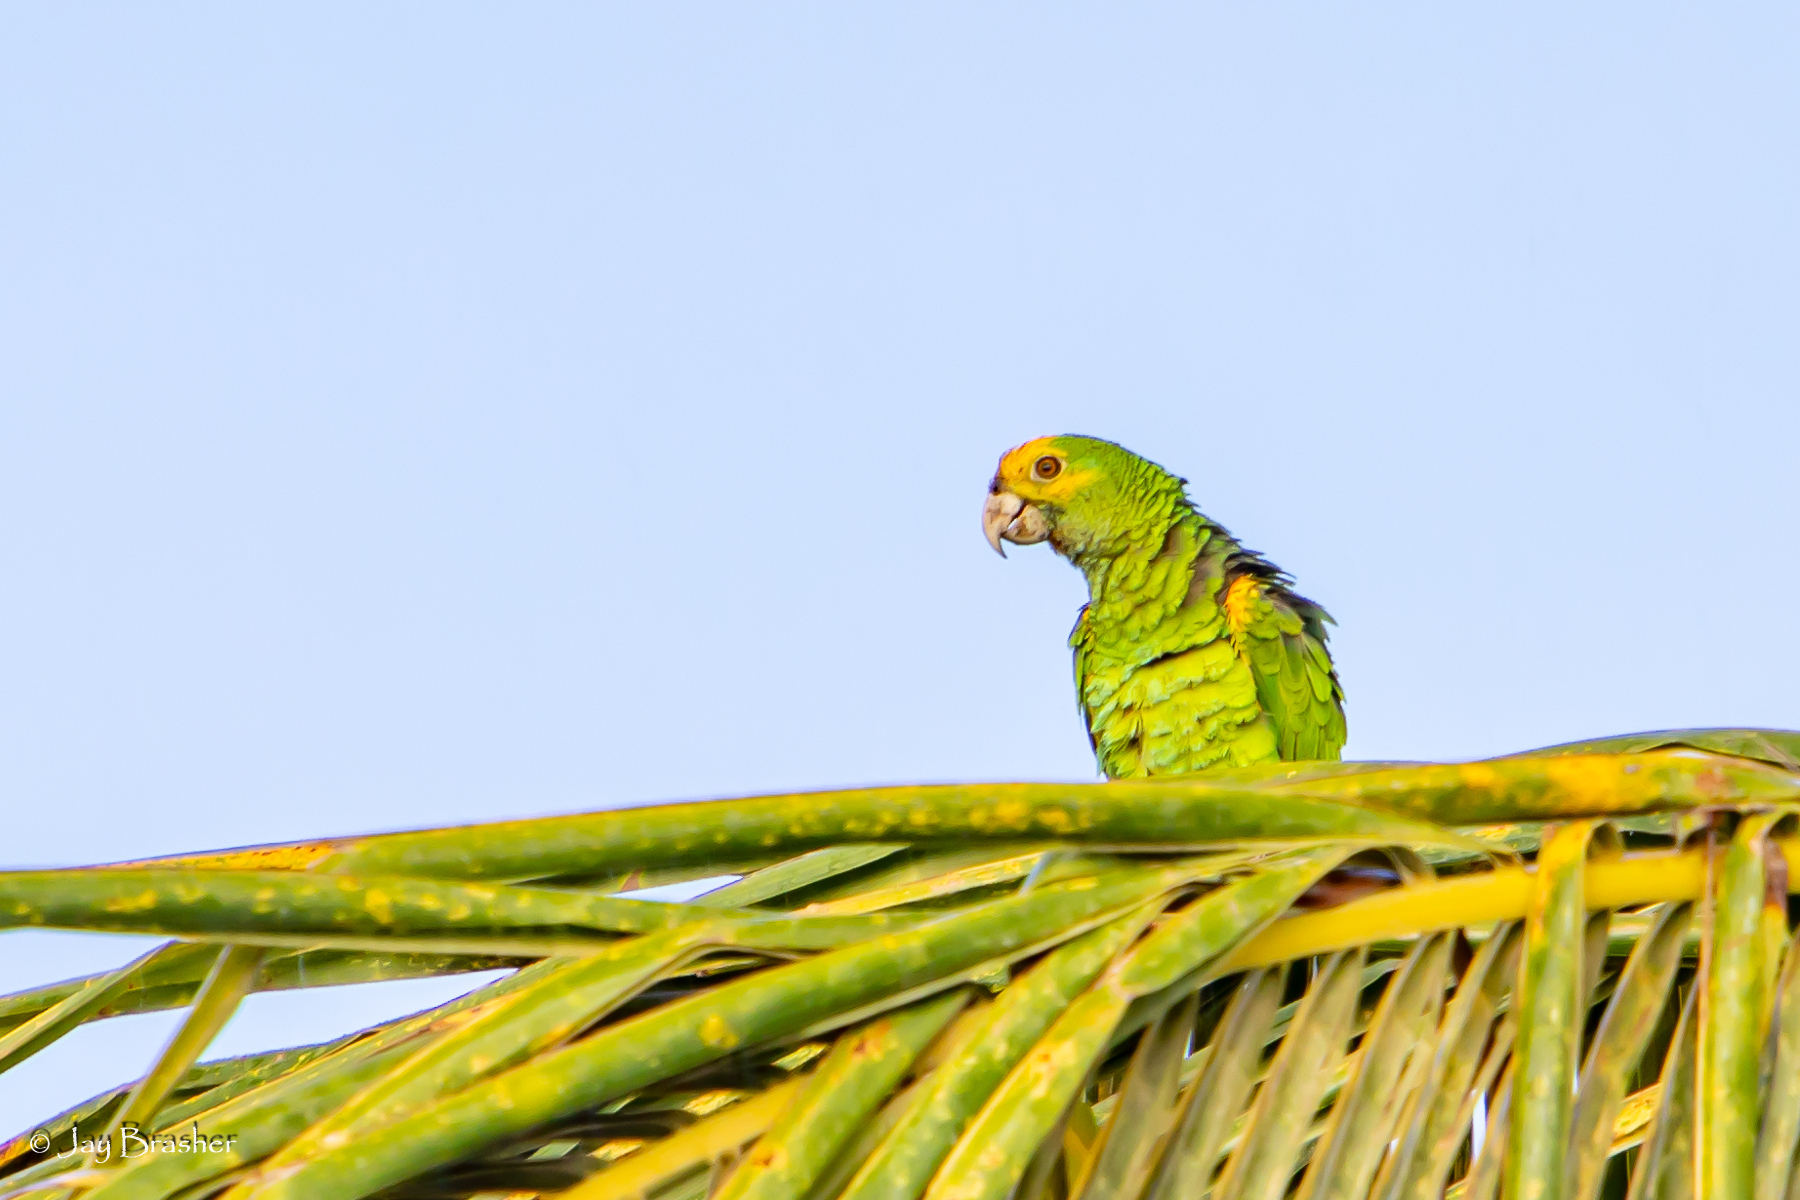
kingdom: Animalia
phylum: Chordata
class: Aves
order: Psittaciformes
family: Psittacidae
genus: Amazona
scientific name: Amazona barbadensis
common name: Yellow-shouldered amazon
